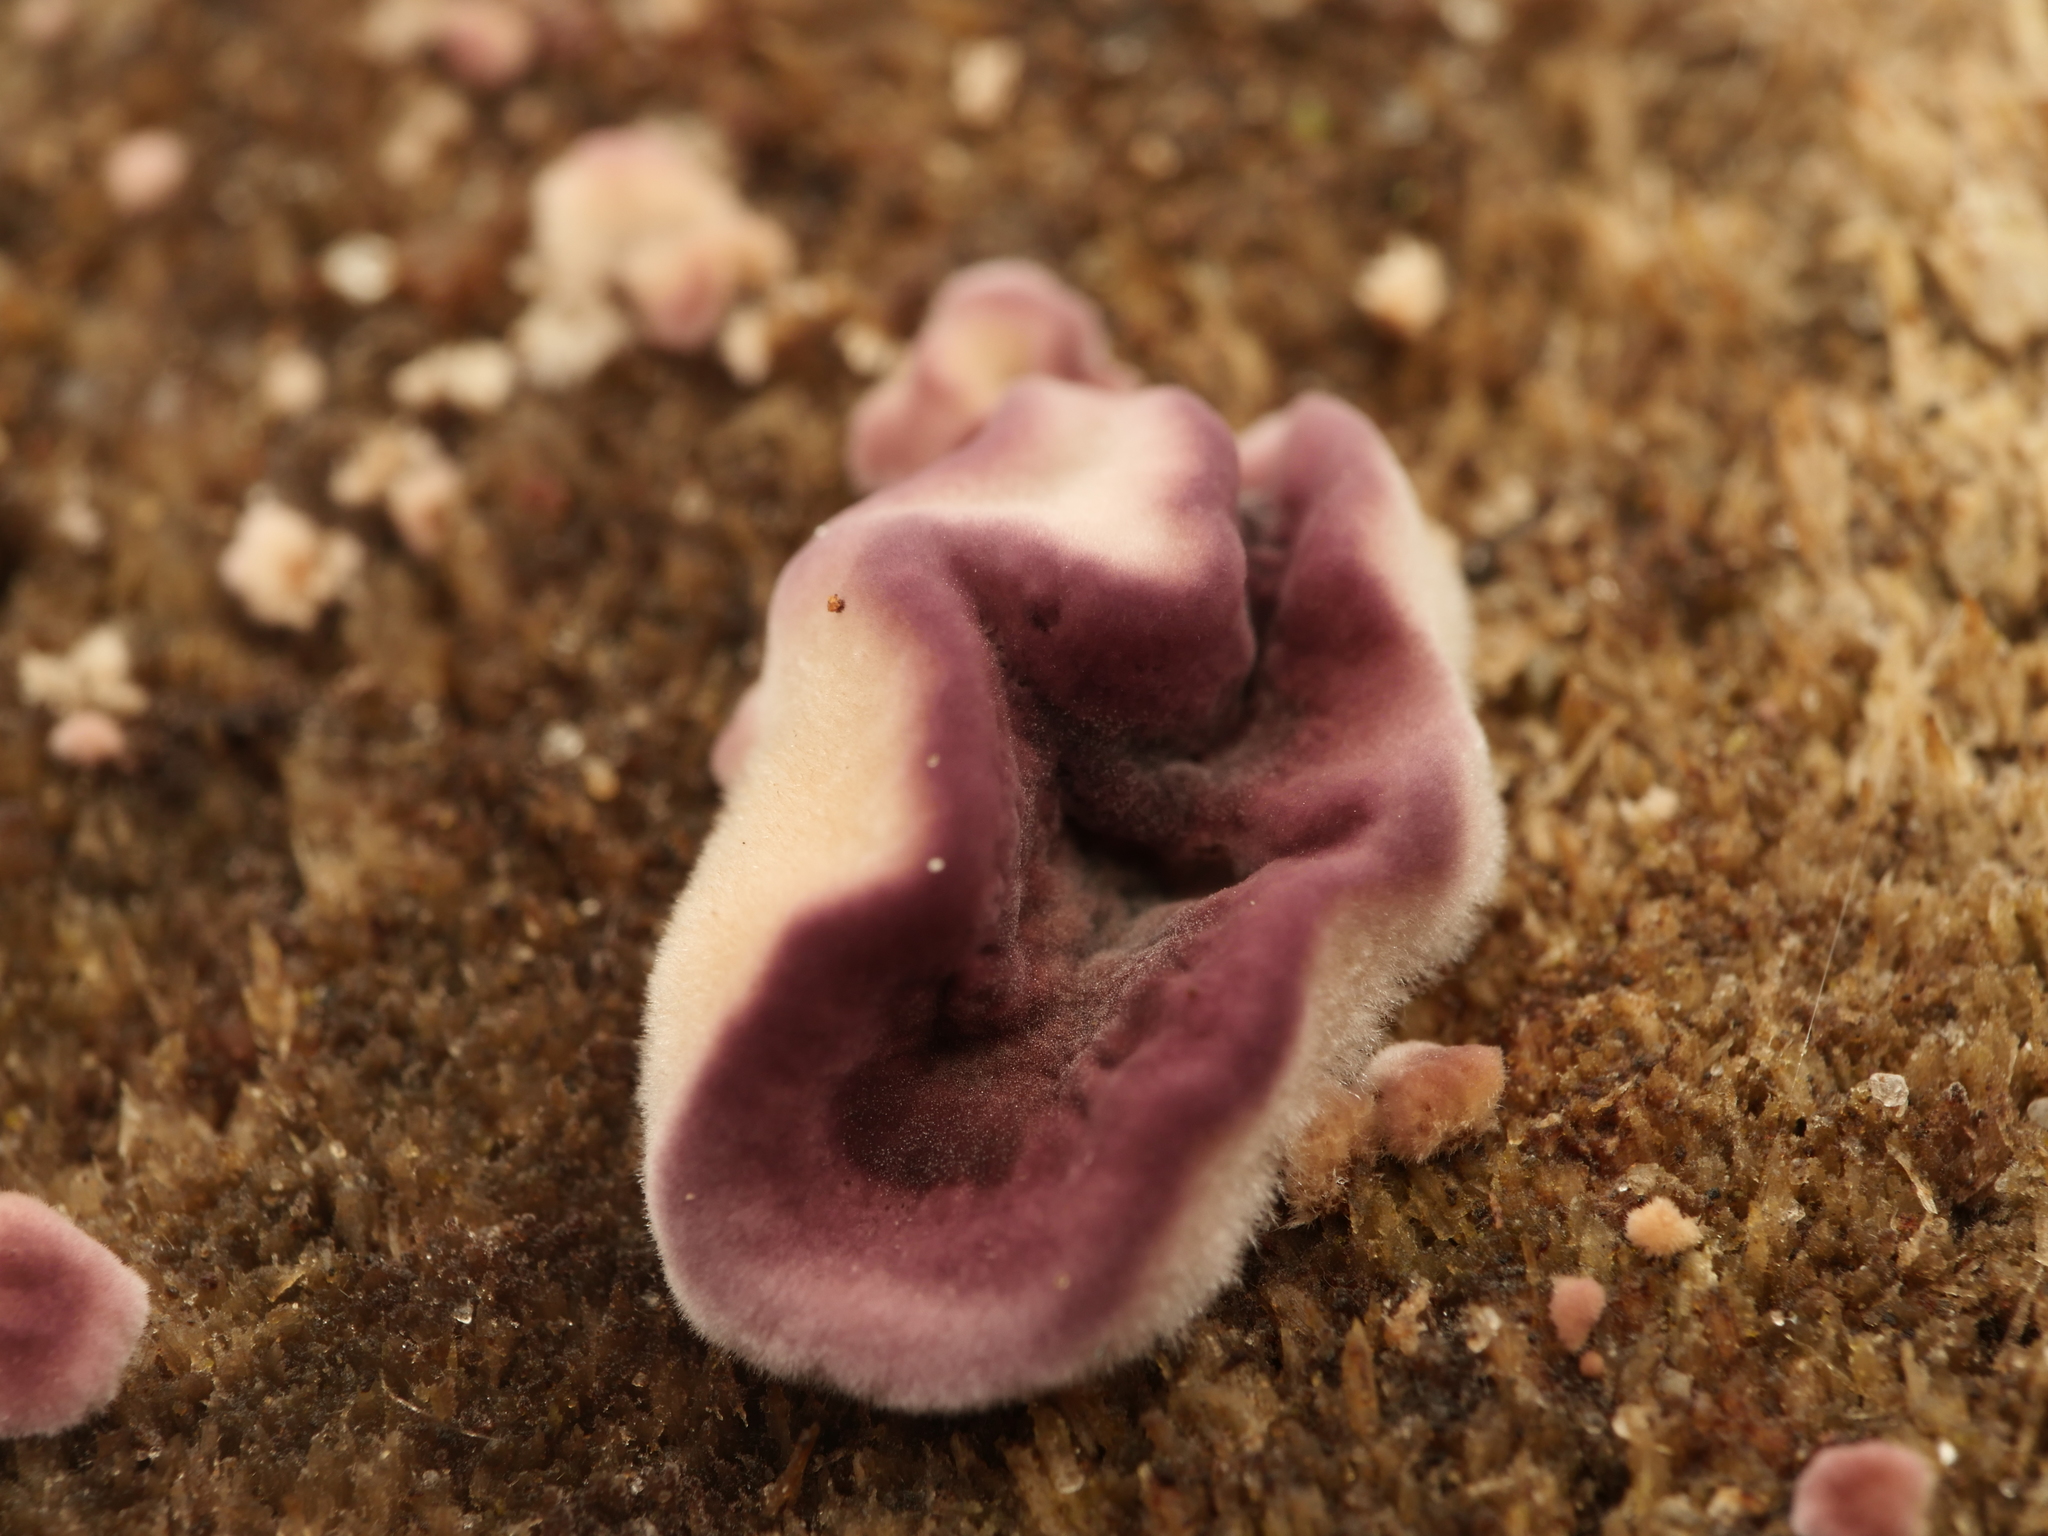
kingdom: Fungi
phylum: Basidiomycota
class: Agaricomycetes
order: Agaricales
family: Cyphellaceae
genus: Chondrostereum
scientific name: Chondrostereum purpureum
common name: Silver leaf disease
